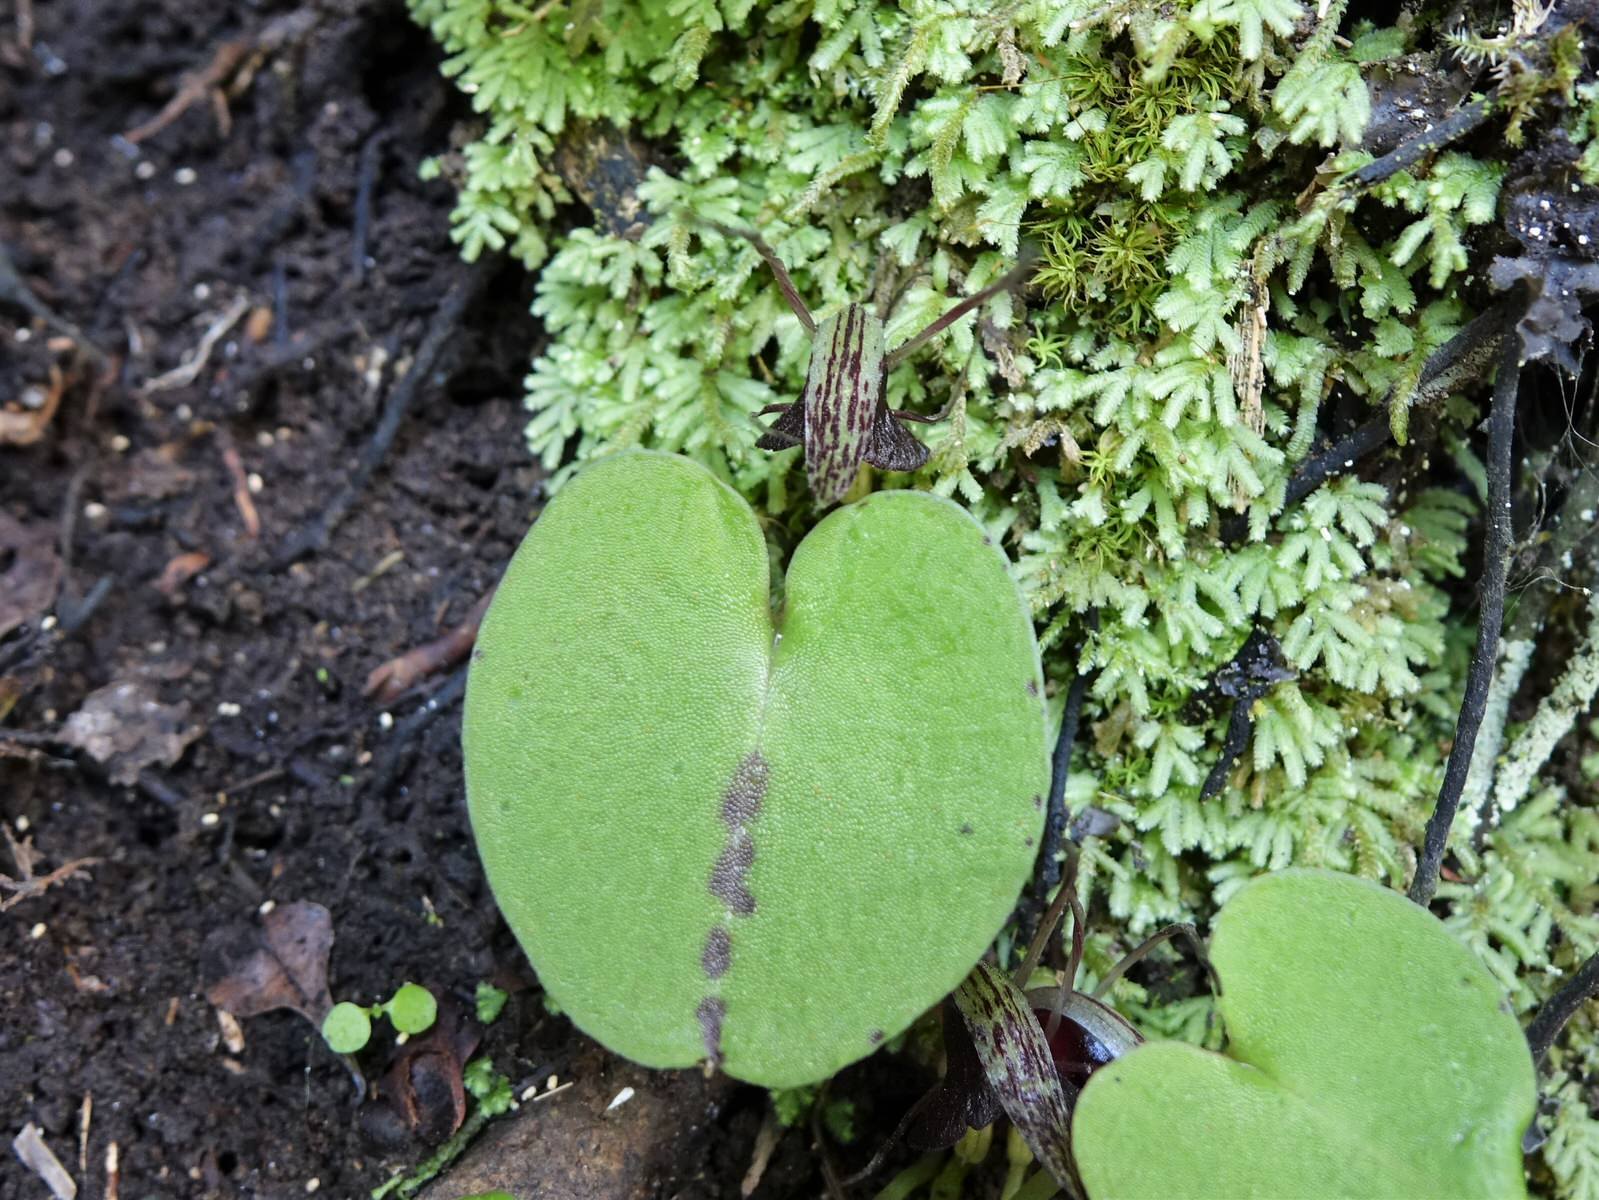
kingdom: Plantae
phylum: Tracheophyta
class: Liliopsida
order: Asparagales
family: Orchidaceae
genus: Corybas
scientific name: Corybas macranthus
